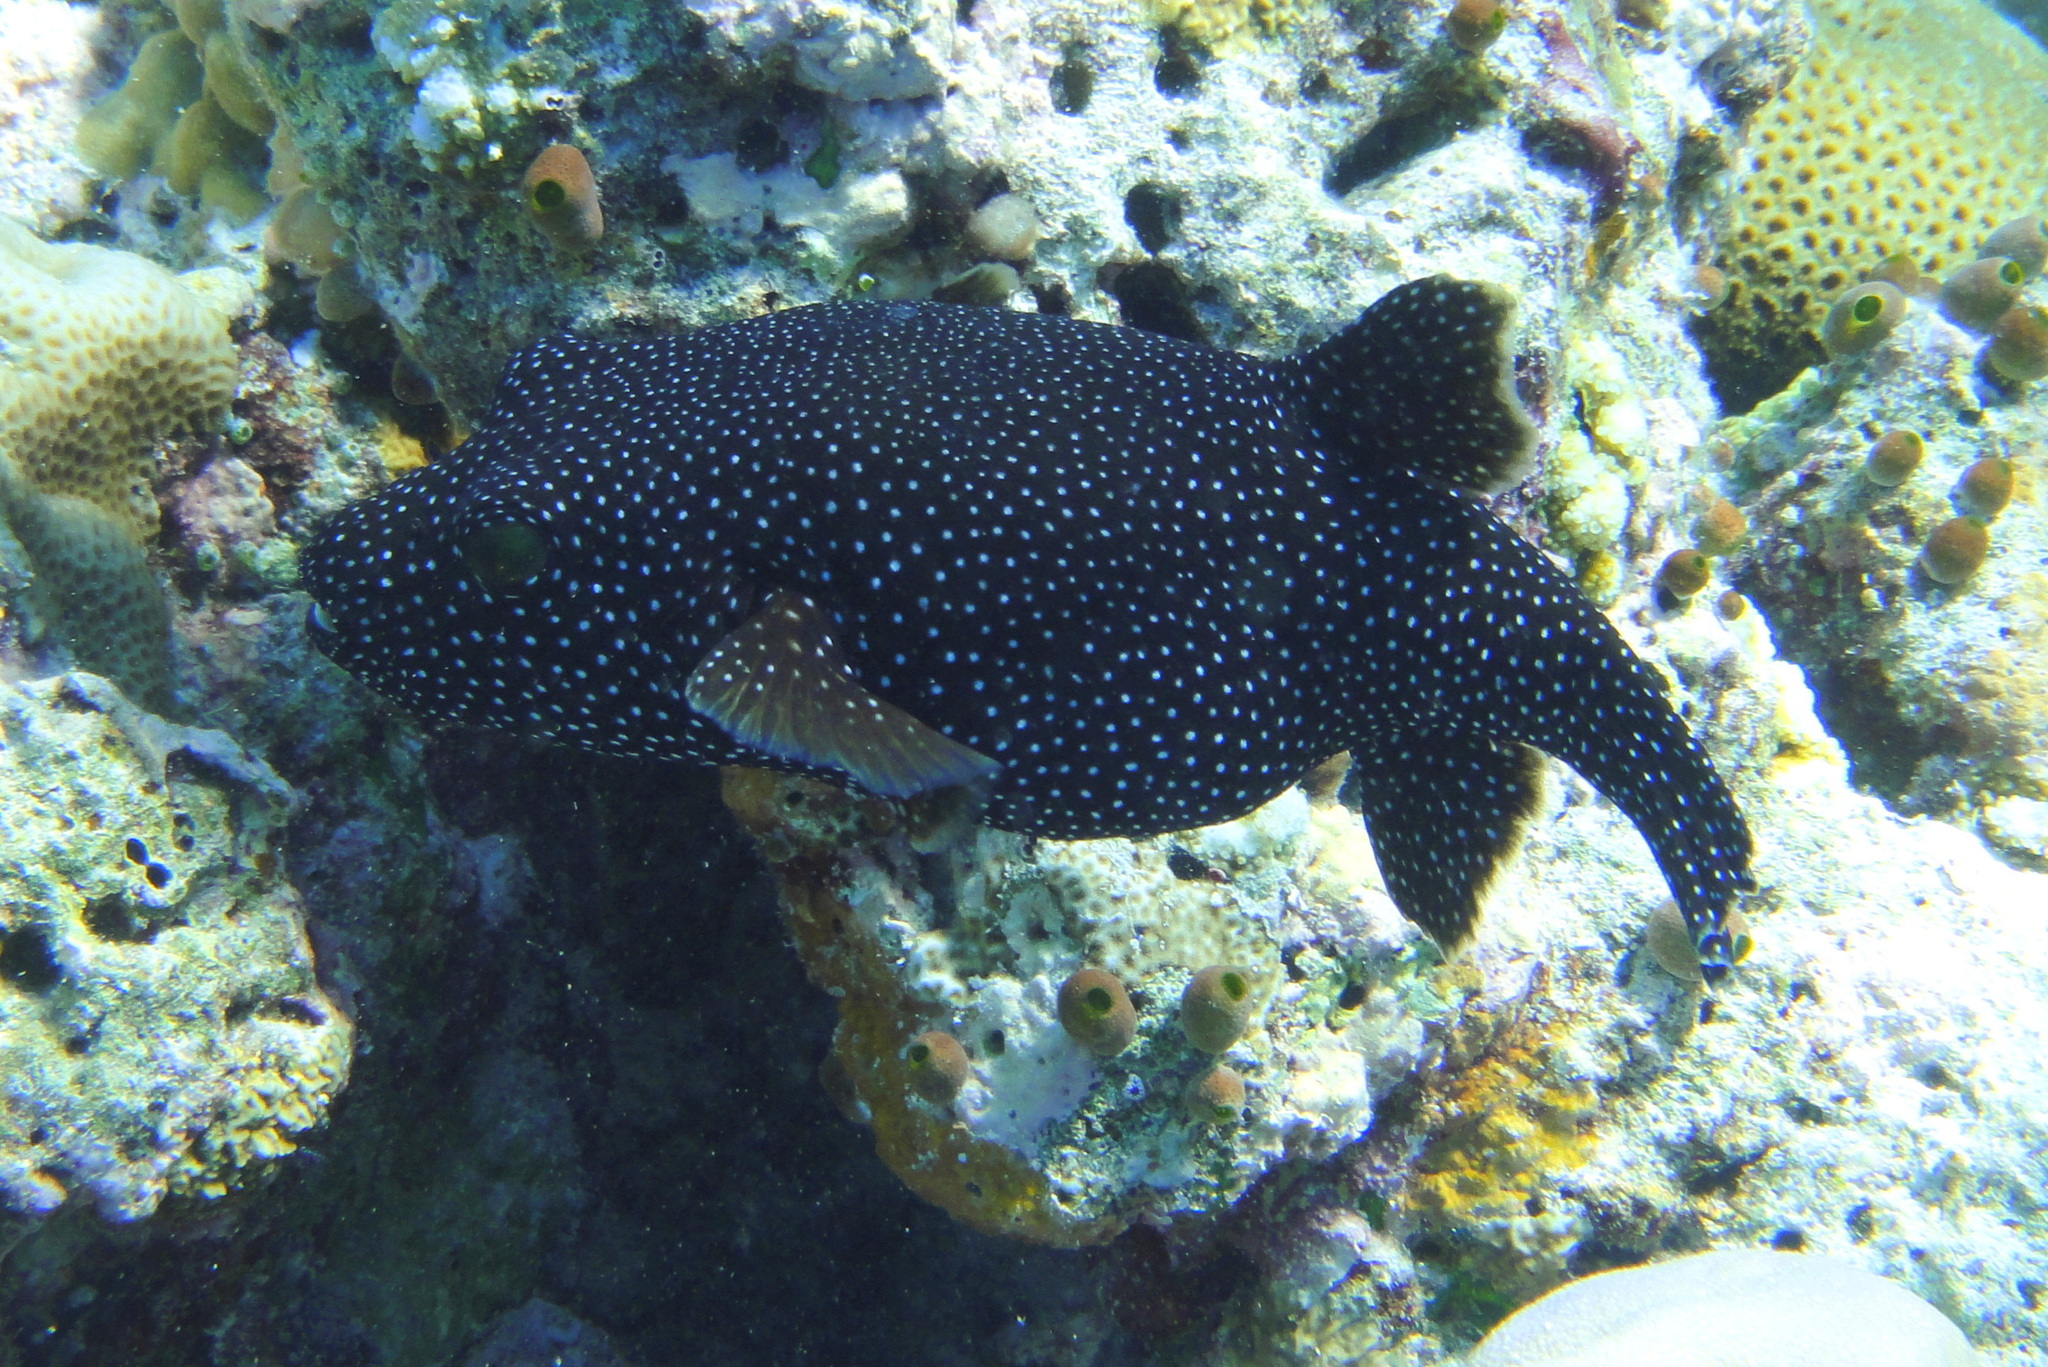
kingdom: Animalia
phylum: Chordata
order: Tetraodontiformes
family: Tetraodontidae
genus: Arothron
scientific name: Arothron meleagris
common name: Guinea-fowl pufferfish
